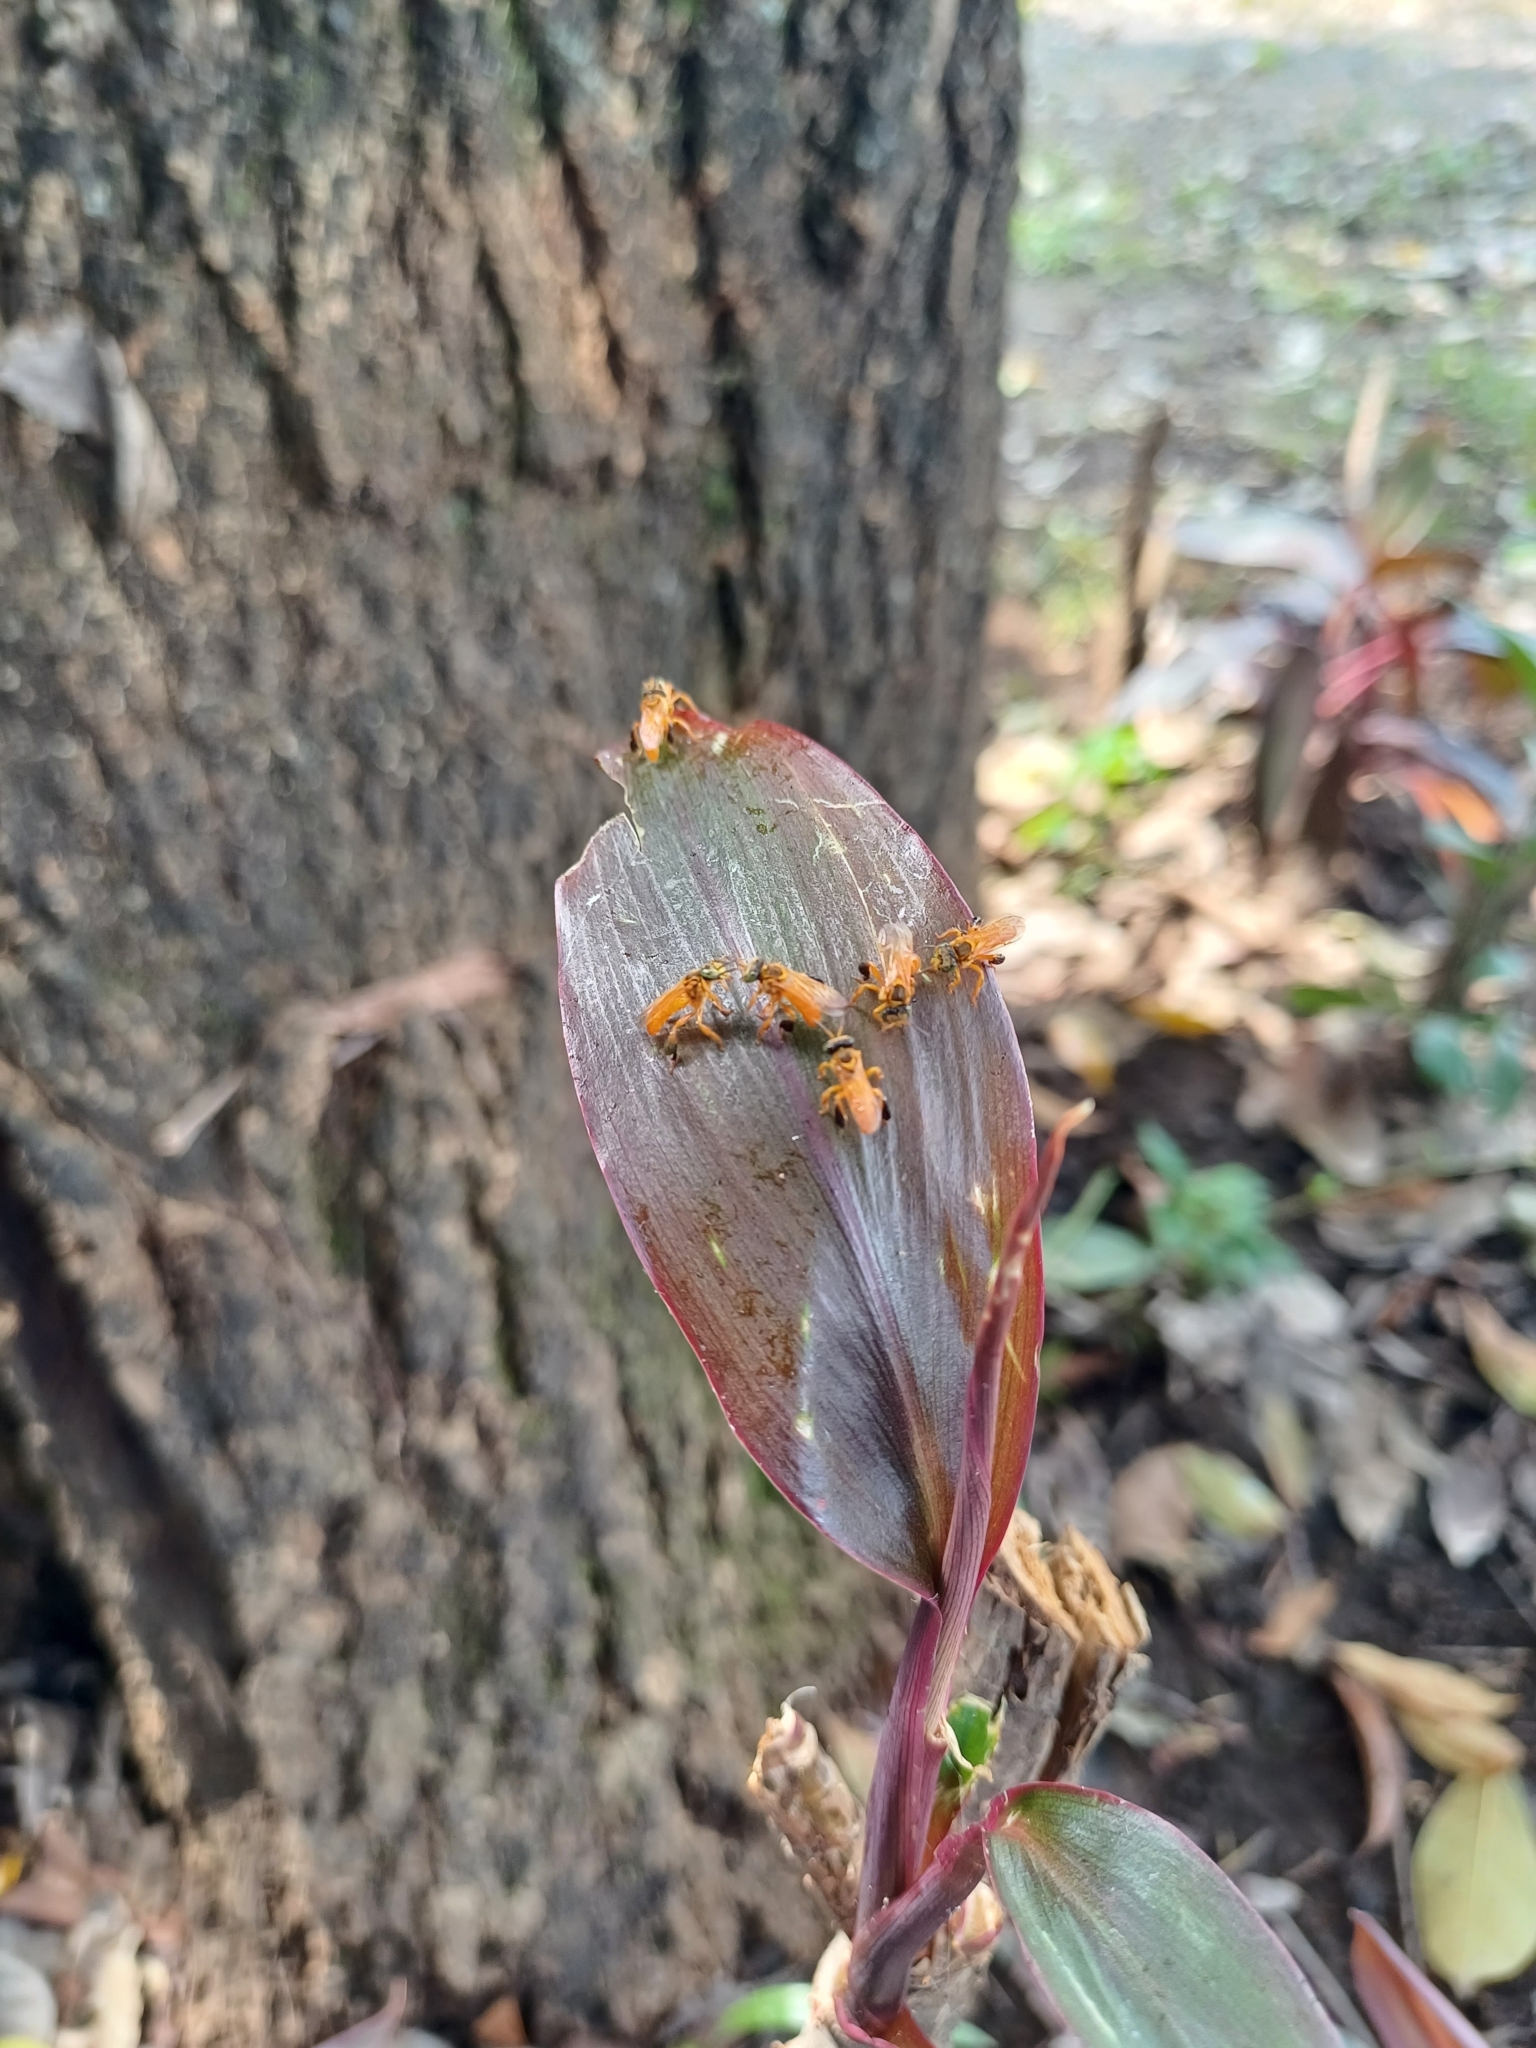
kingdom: Animalia
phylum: Arthropoda
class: Insecta
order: Hymenoptera
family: Apidae
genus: Tetragonisca
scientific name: Tetragonisca angustula
